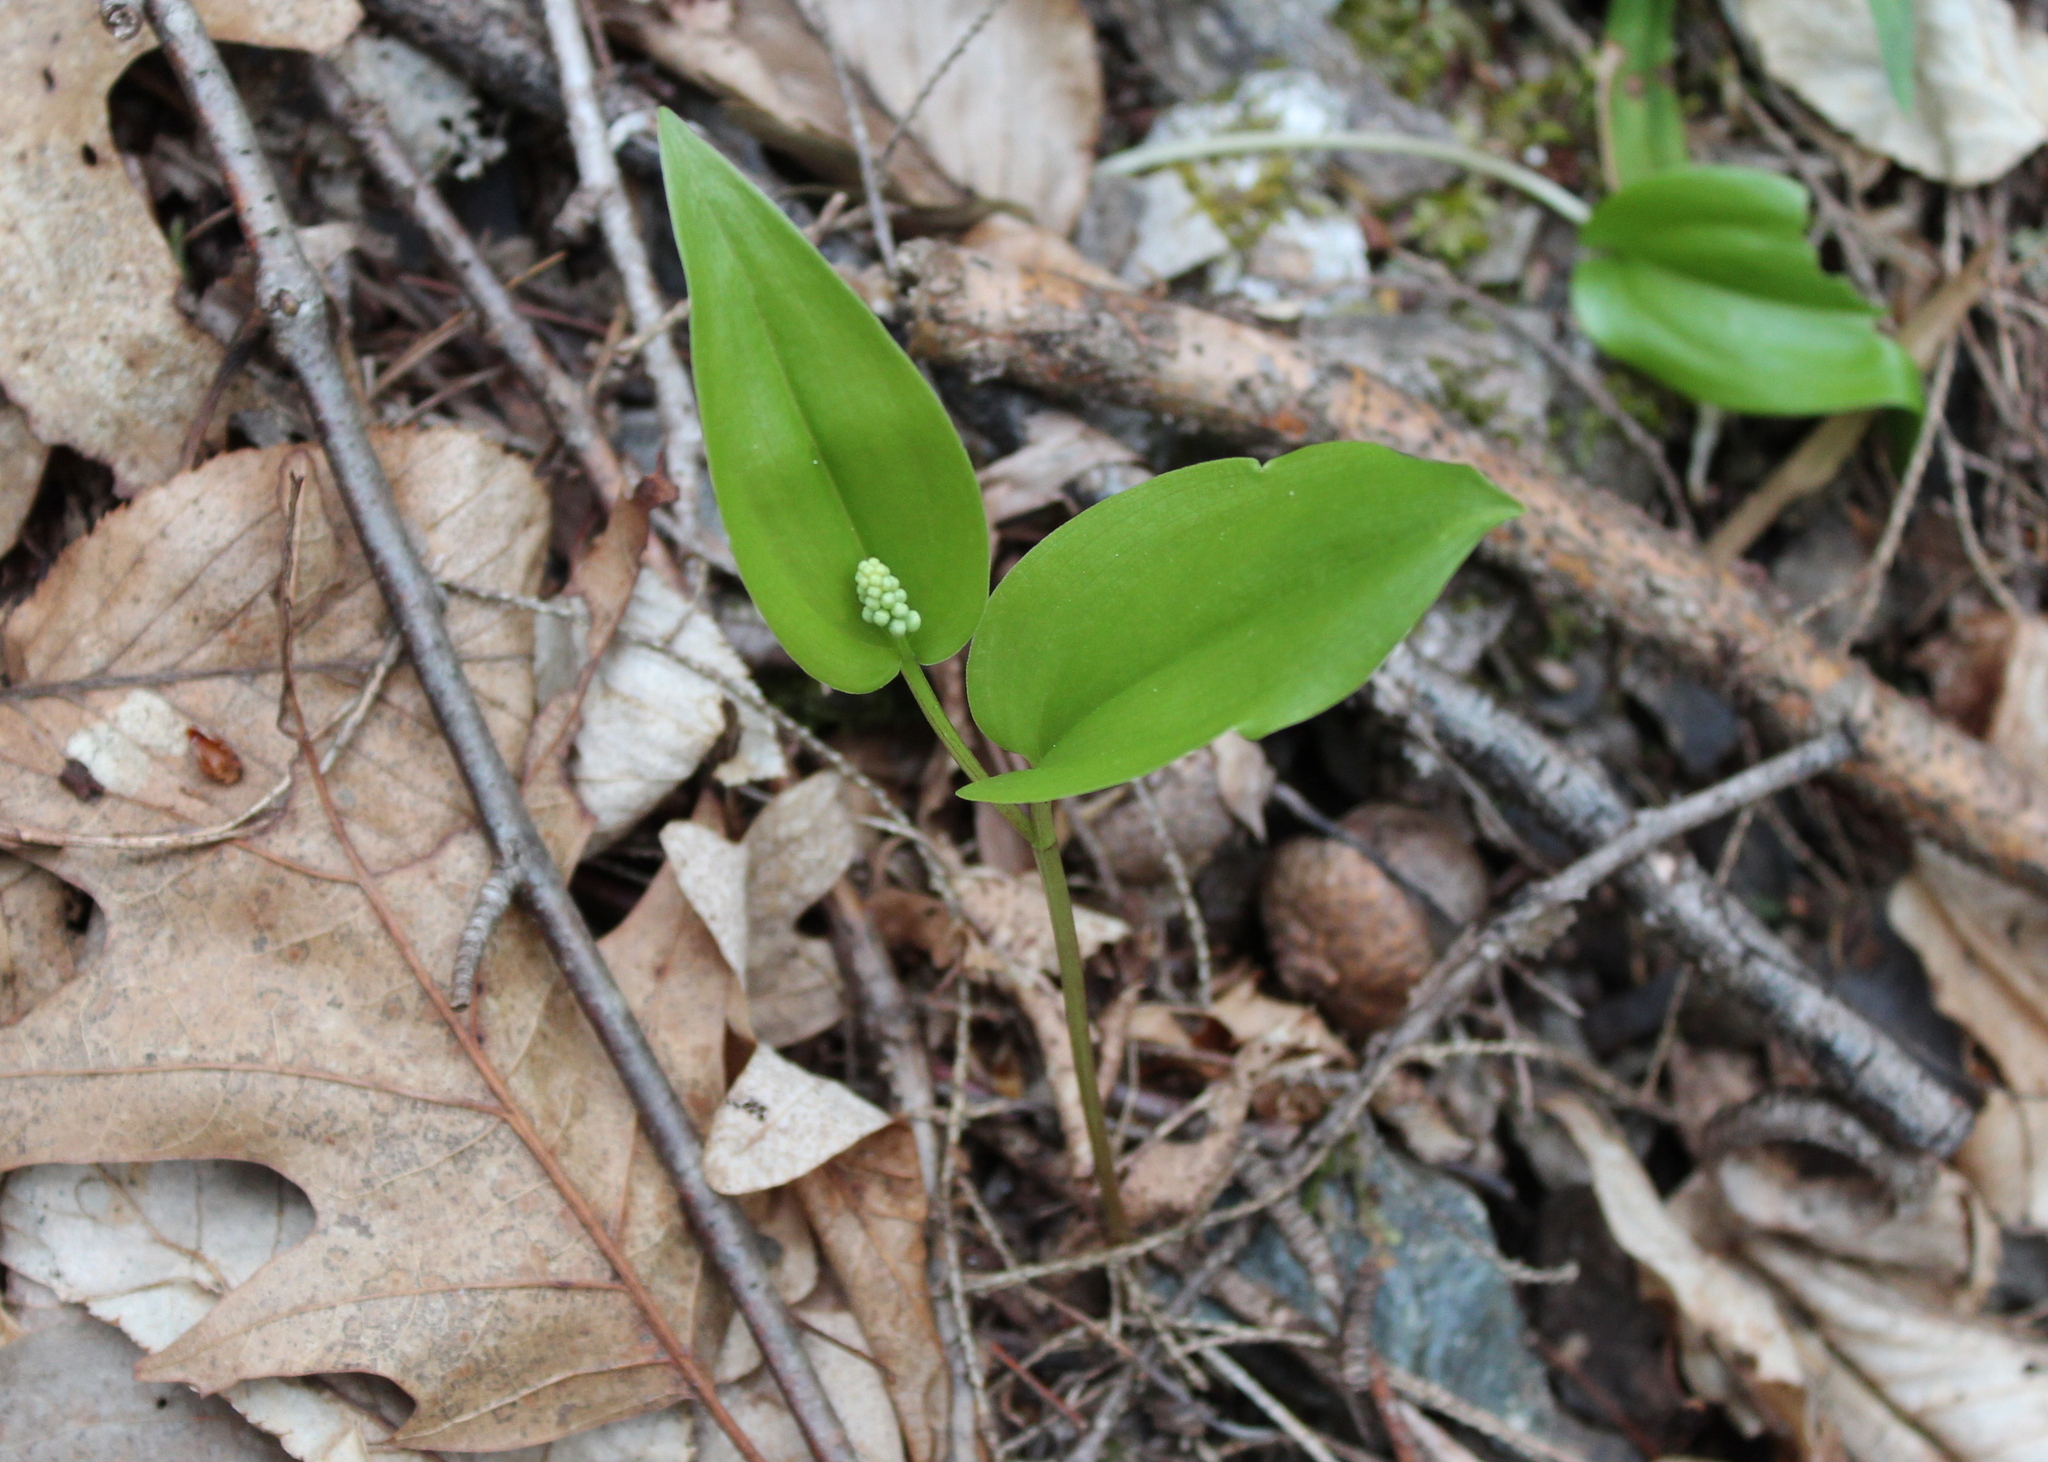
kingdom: Plantae
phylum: Tracheophyta
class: Liliopsida
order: Asparagales
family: Asparagaceae
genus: Maianthemum
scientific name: Maianthemum canadense
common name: False lily-of-the-valley
